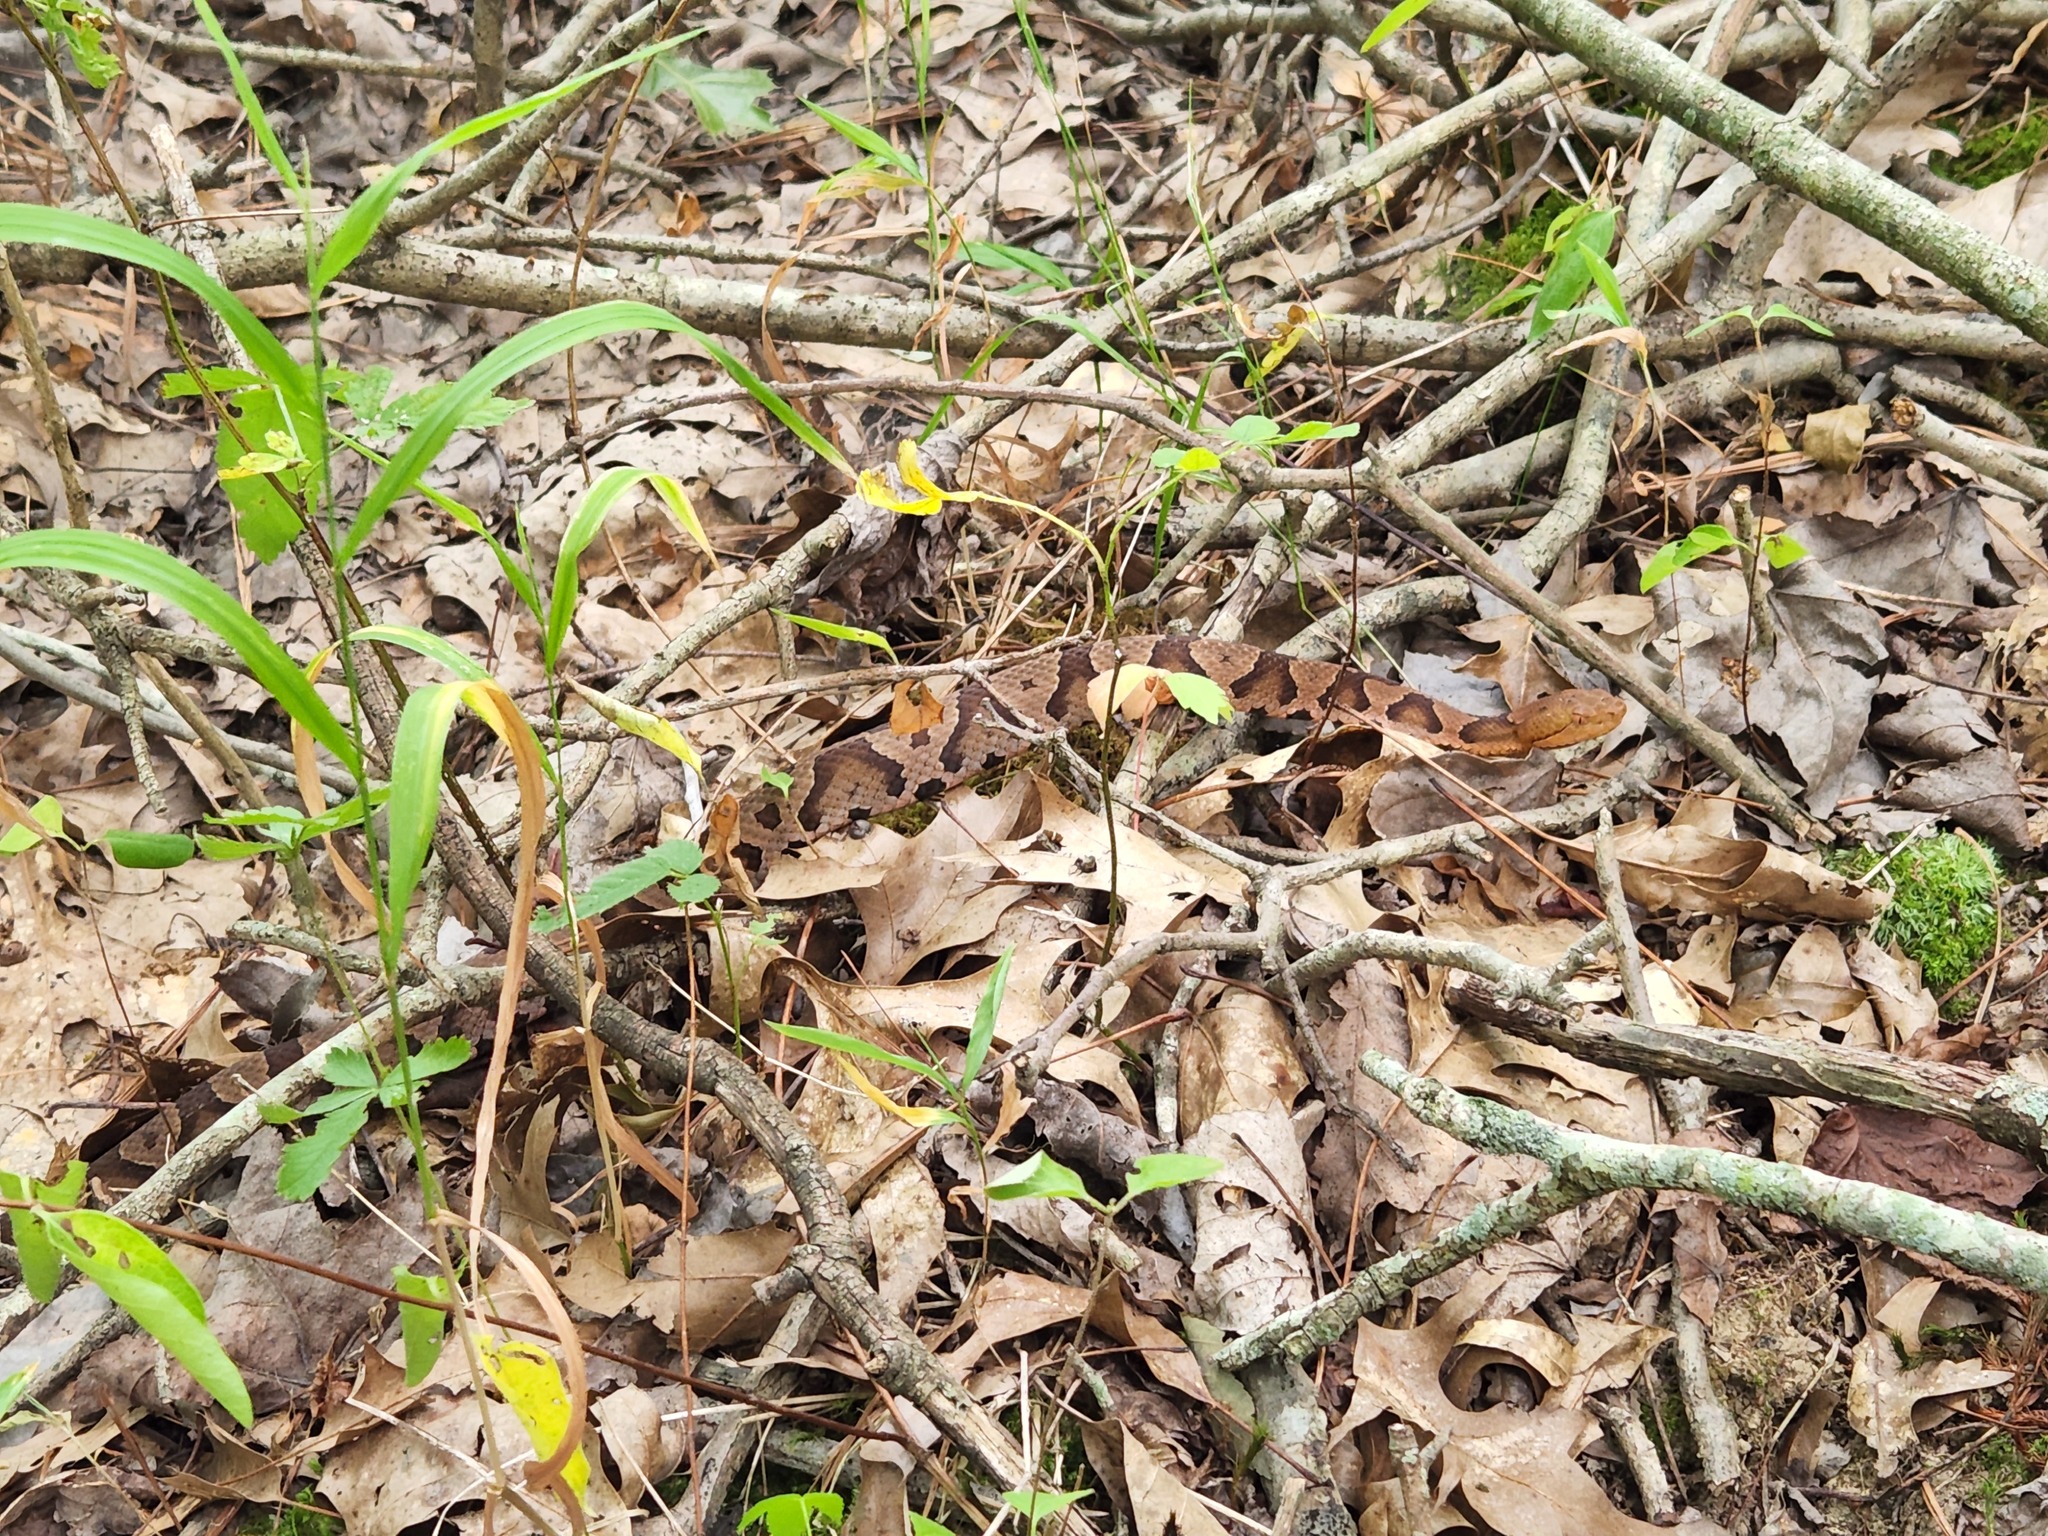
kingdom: Animalia
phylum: Chordata
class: Squamata
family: Viperidae
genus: Agkistrodon
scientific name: Agkistrodon contortrix
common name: Northern copperhead
